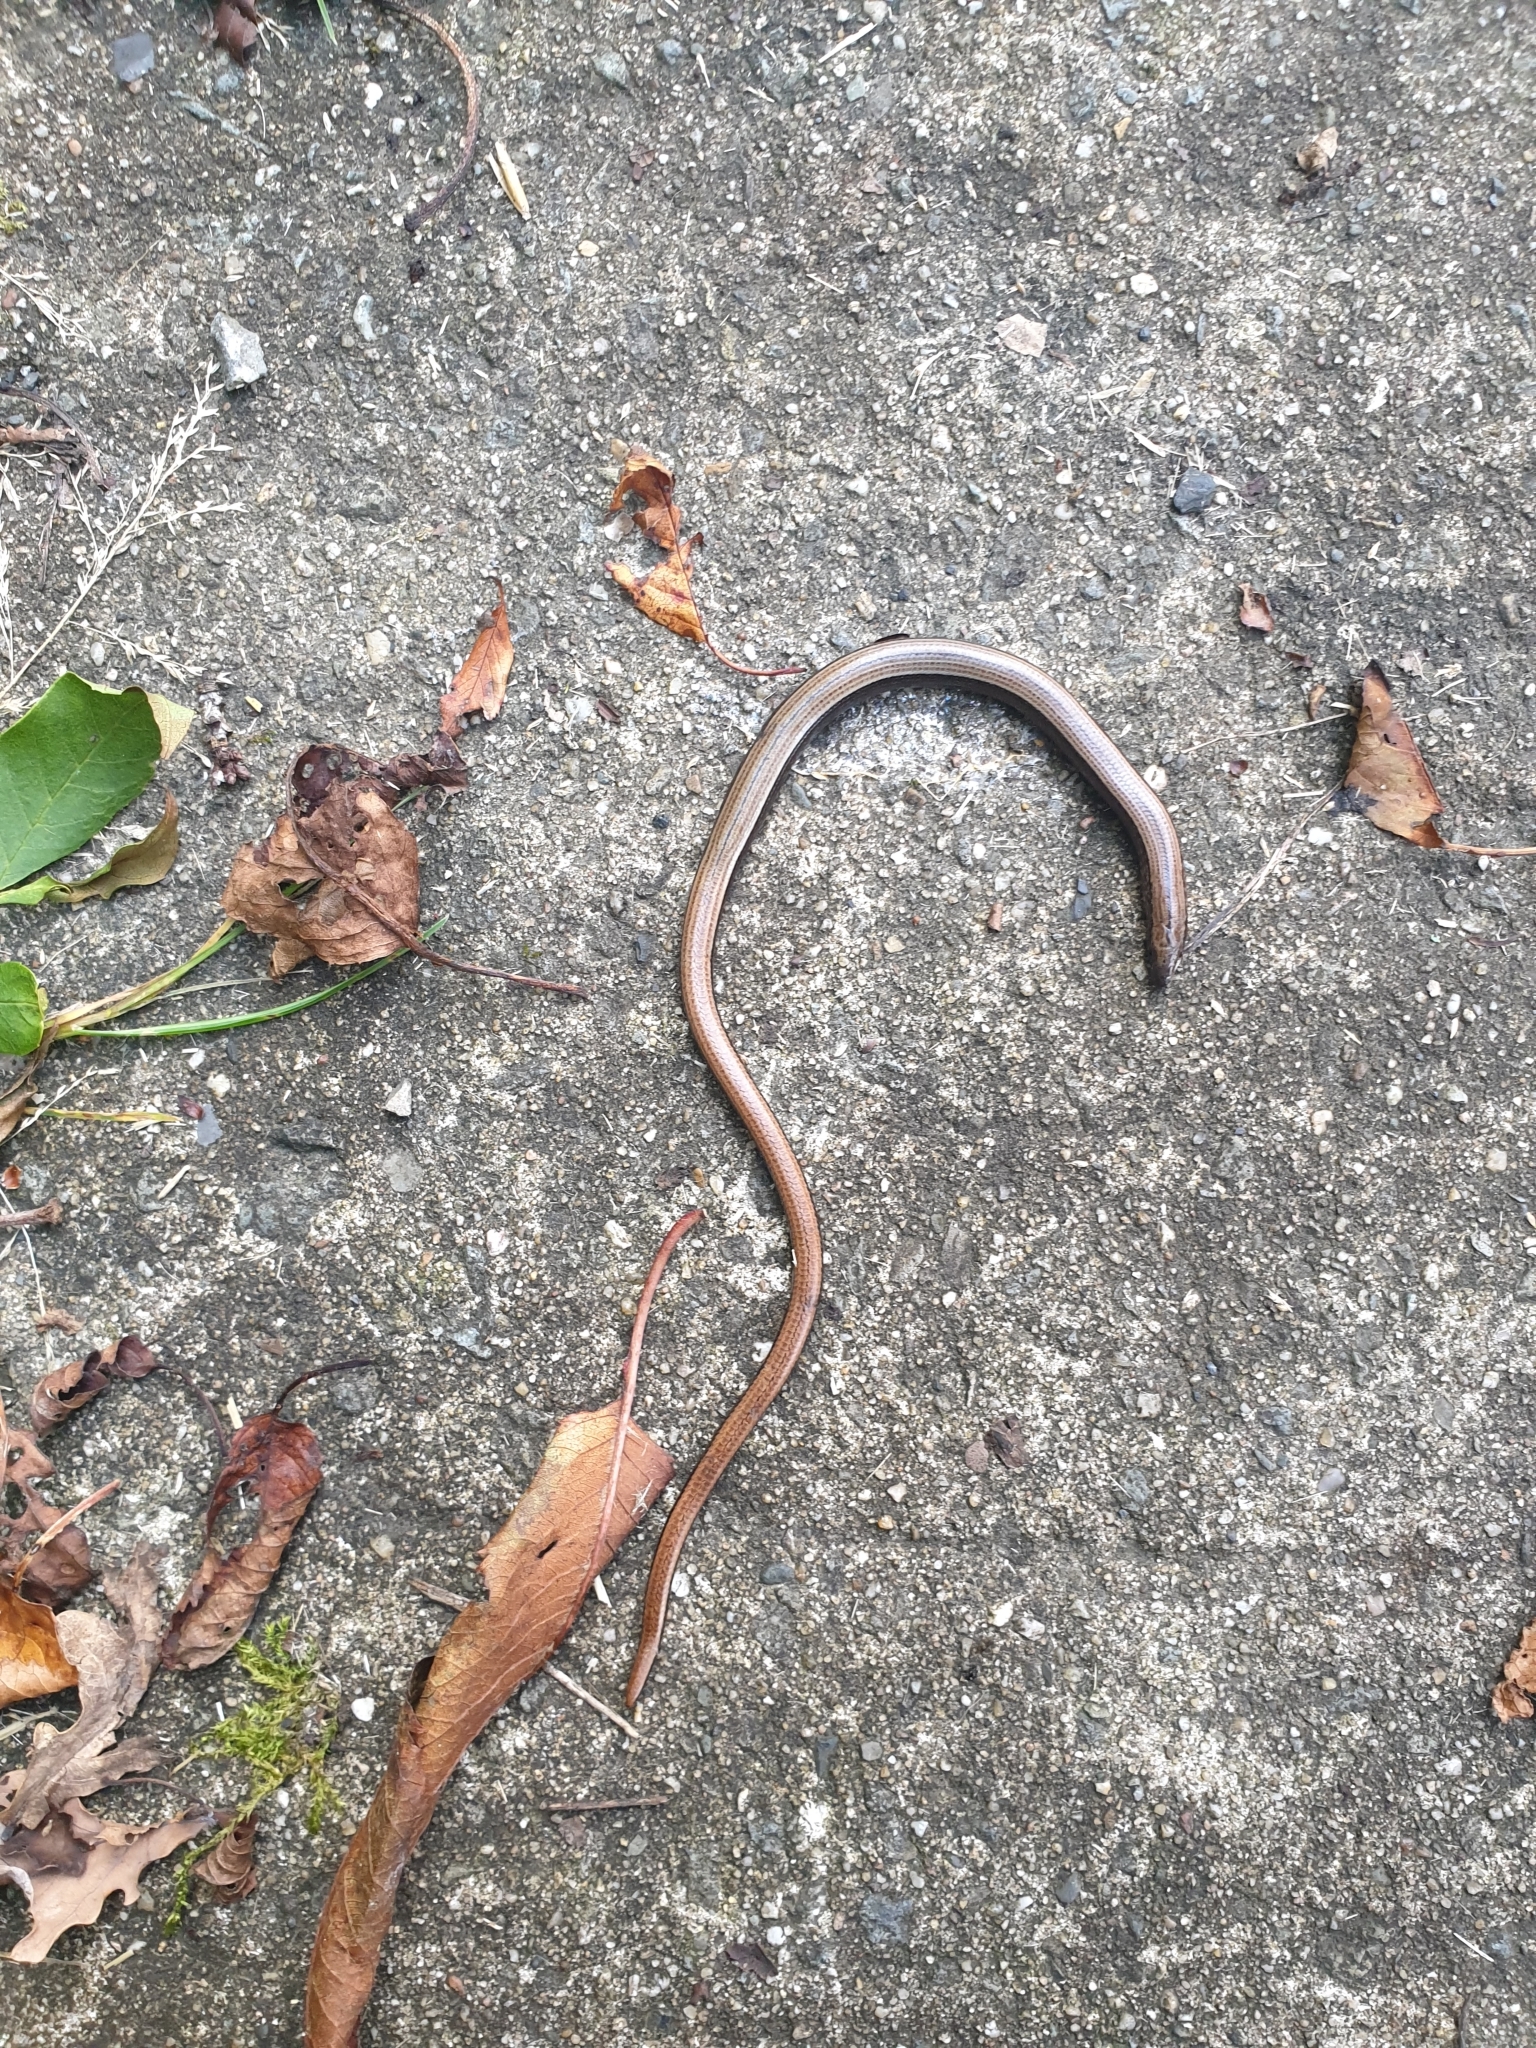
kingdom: Animalia
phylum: Chordata
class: Squamata
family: Anguidae
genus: Anguis
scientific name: Anguis fragilis
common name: Slow worm
